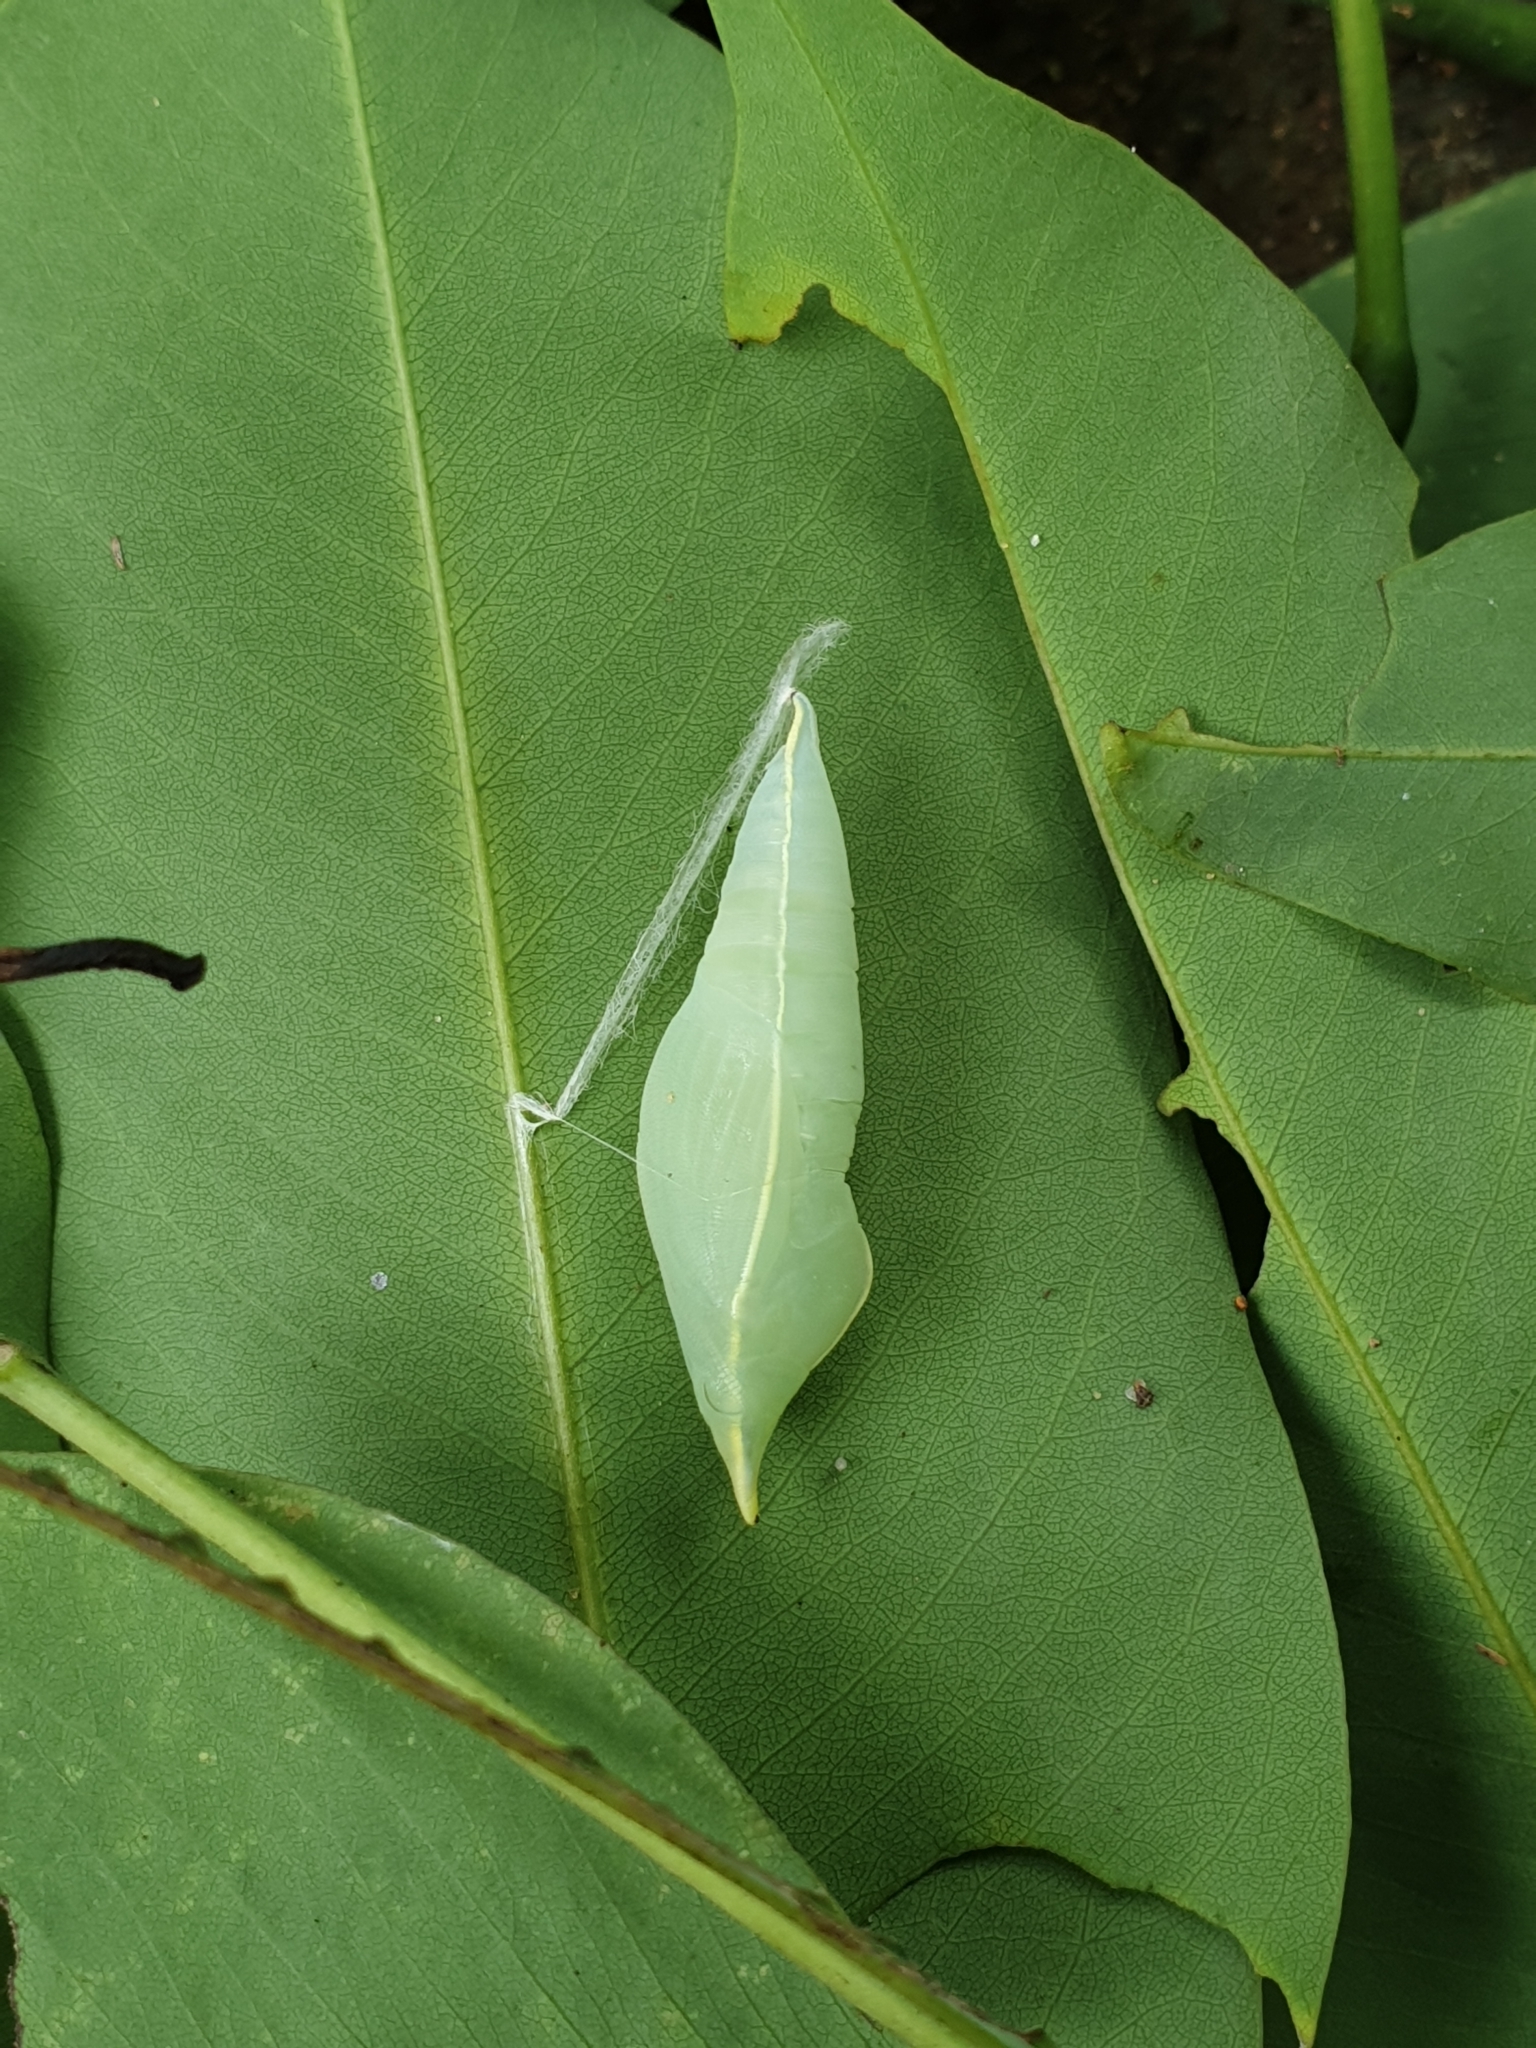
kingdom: Animalia
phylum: Arthropoda
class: Insecta
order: Lepidoptera
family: Pieridae
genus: Catopsilia
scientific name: Catopsilia pomona
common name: Common emigrant
